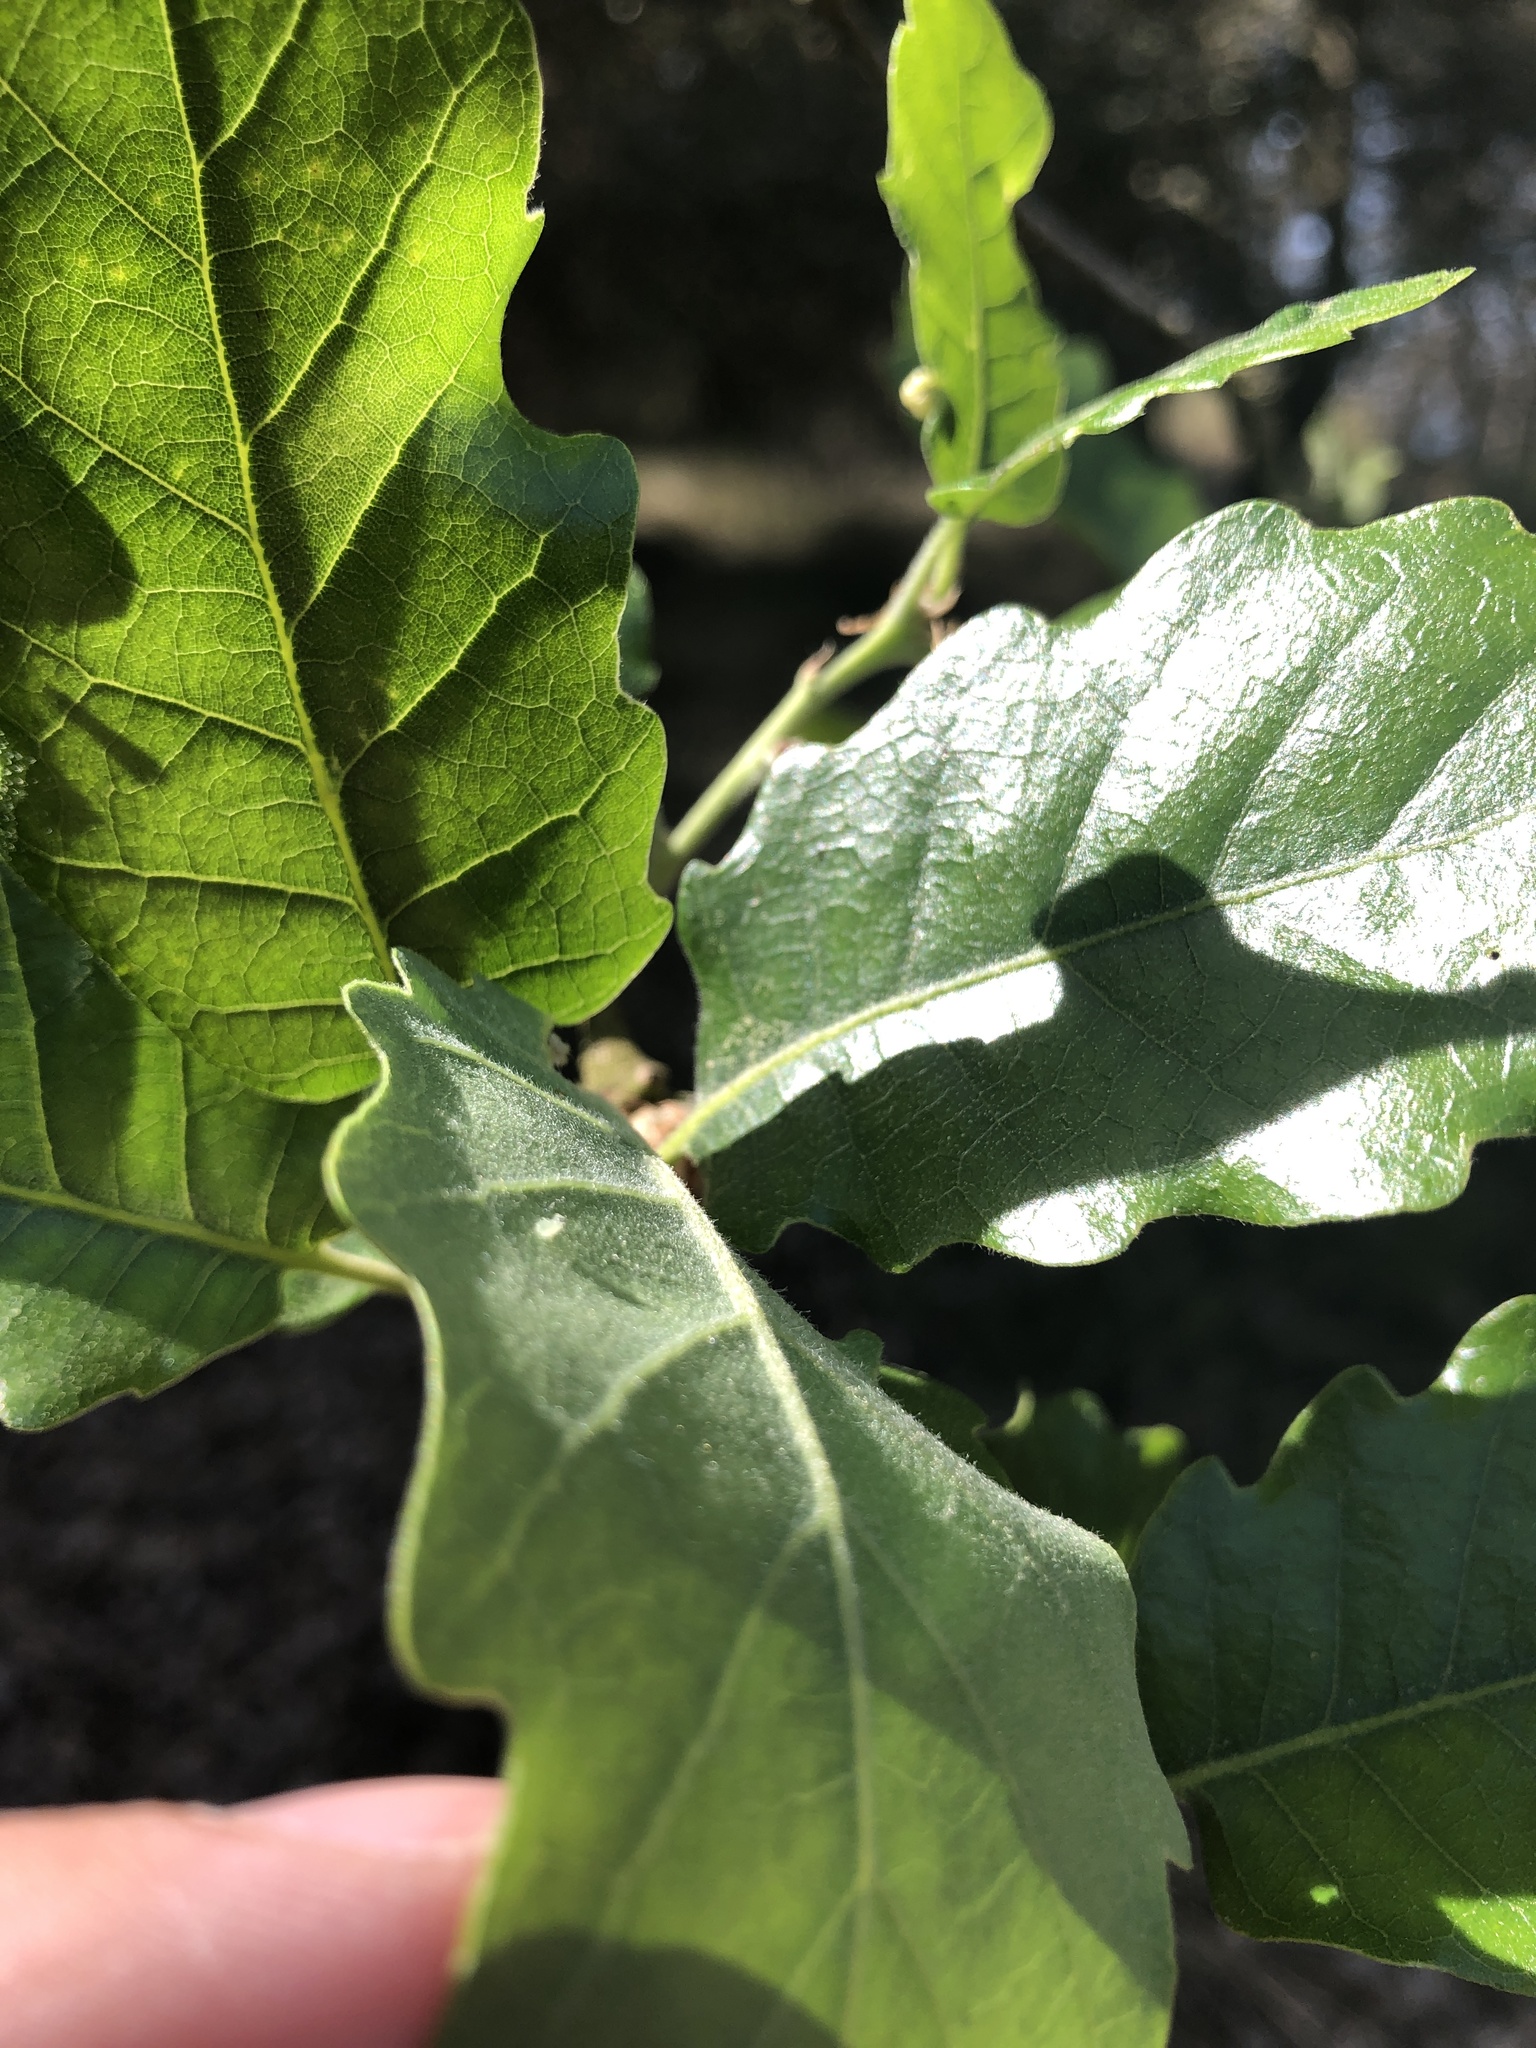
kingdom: Plantae
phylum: Tracheophyta
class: Magnoliopsida
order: Fagales
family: Fagaceae
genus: Quercus
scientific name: Quercus pubescens
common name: Downy oak
